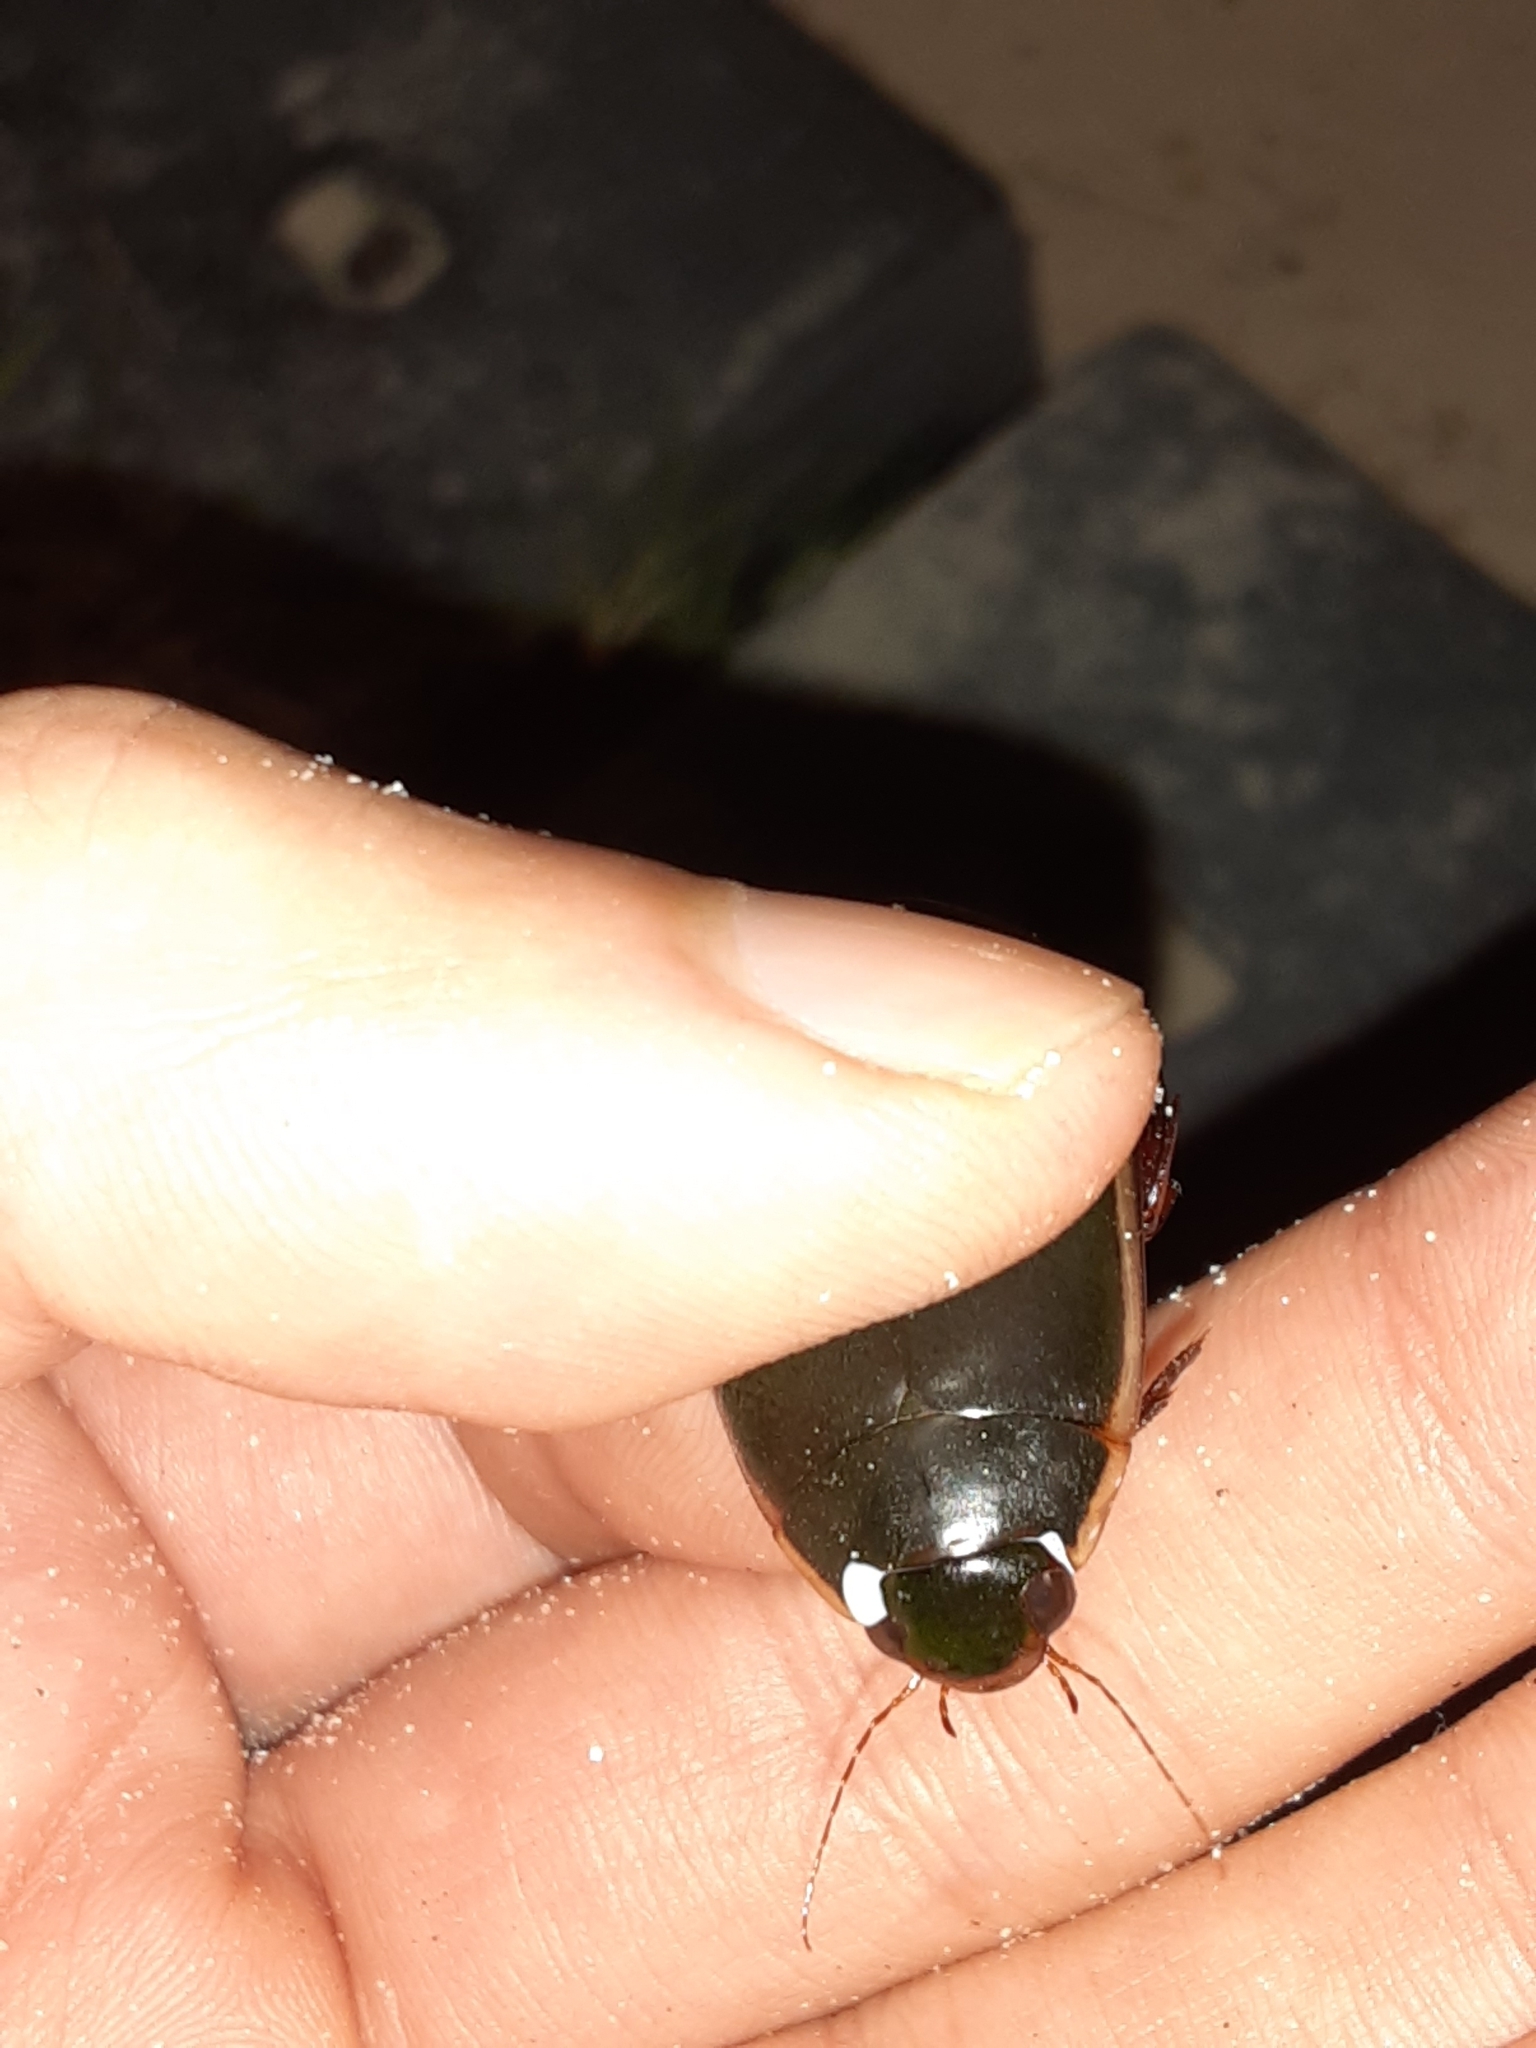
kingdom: Animalia
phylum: Arthropoda
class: Insecta
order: Coleoptera
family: Dytiscidae
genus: Cybister
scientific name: Cybister fimbriolatus
